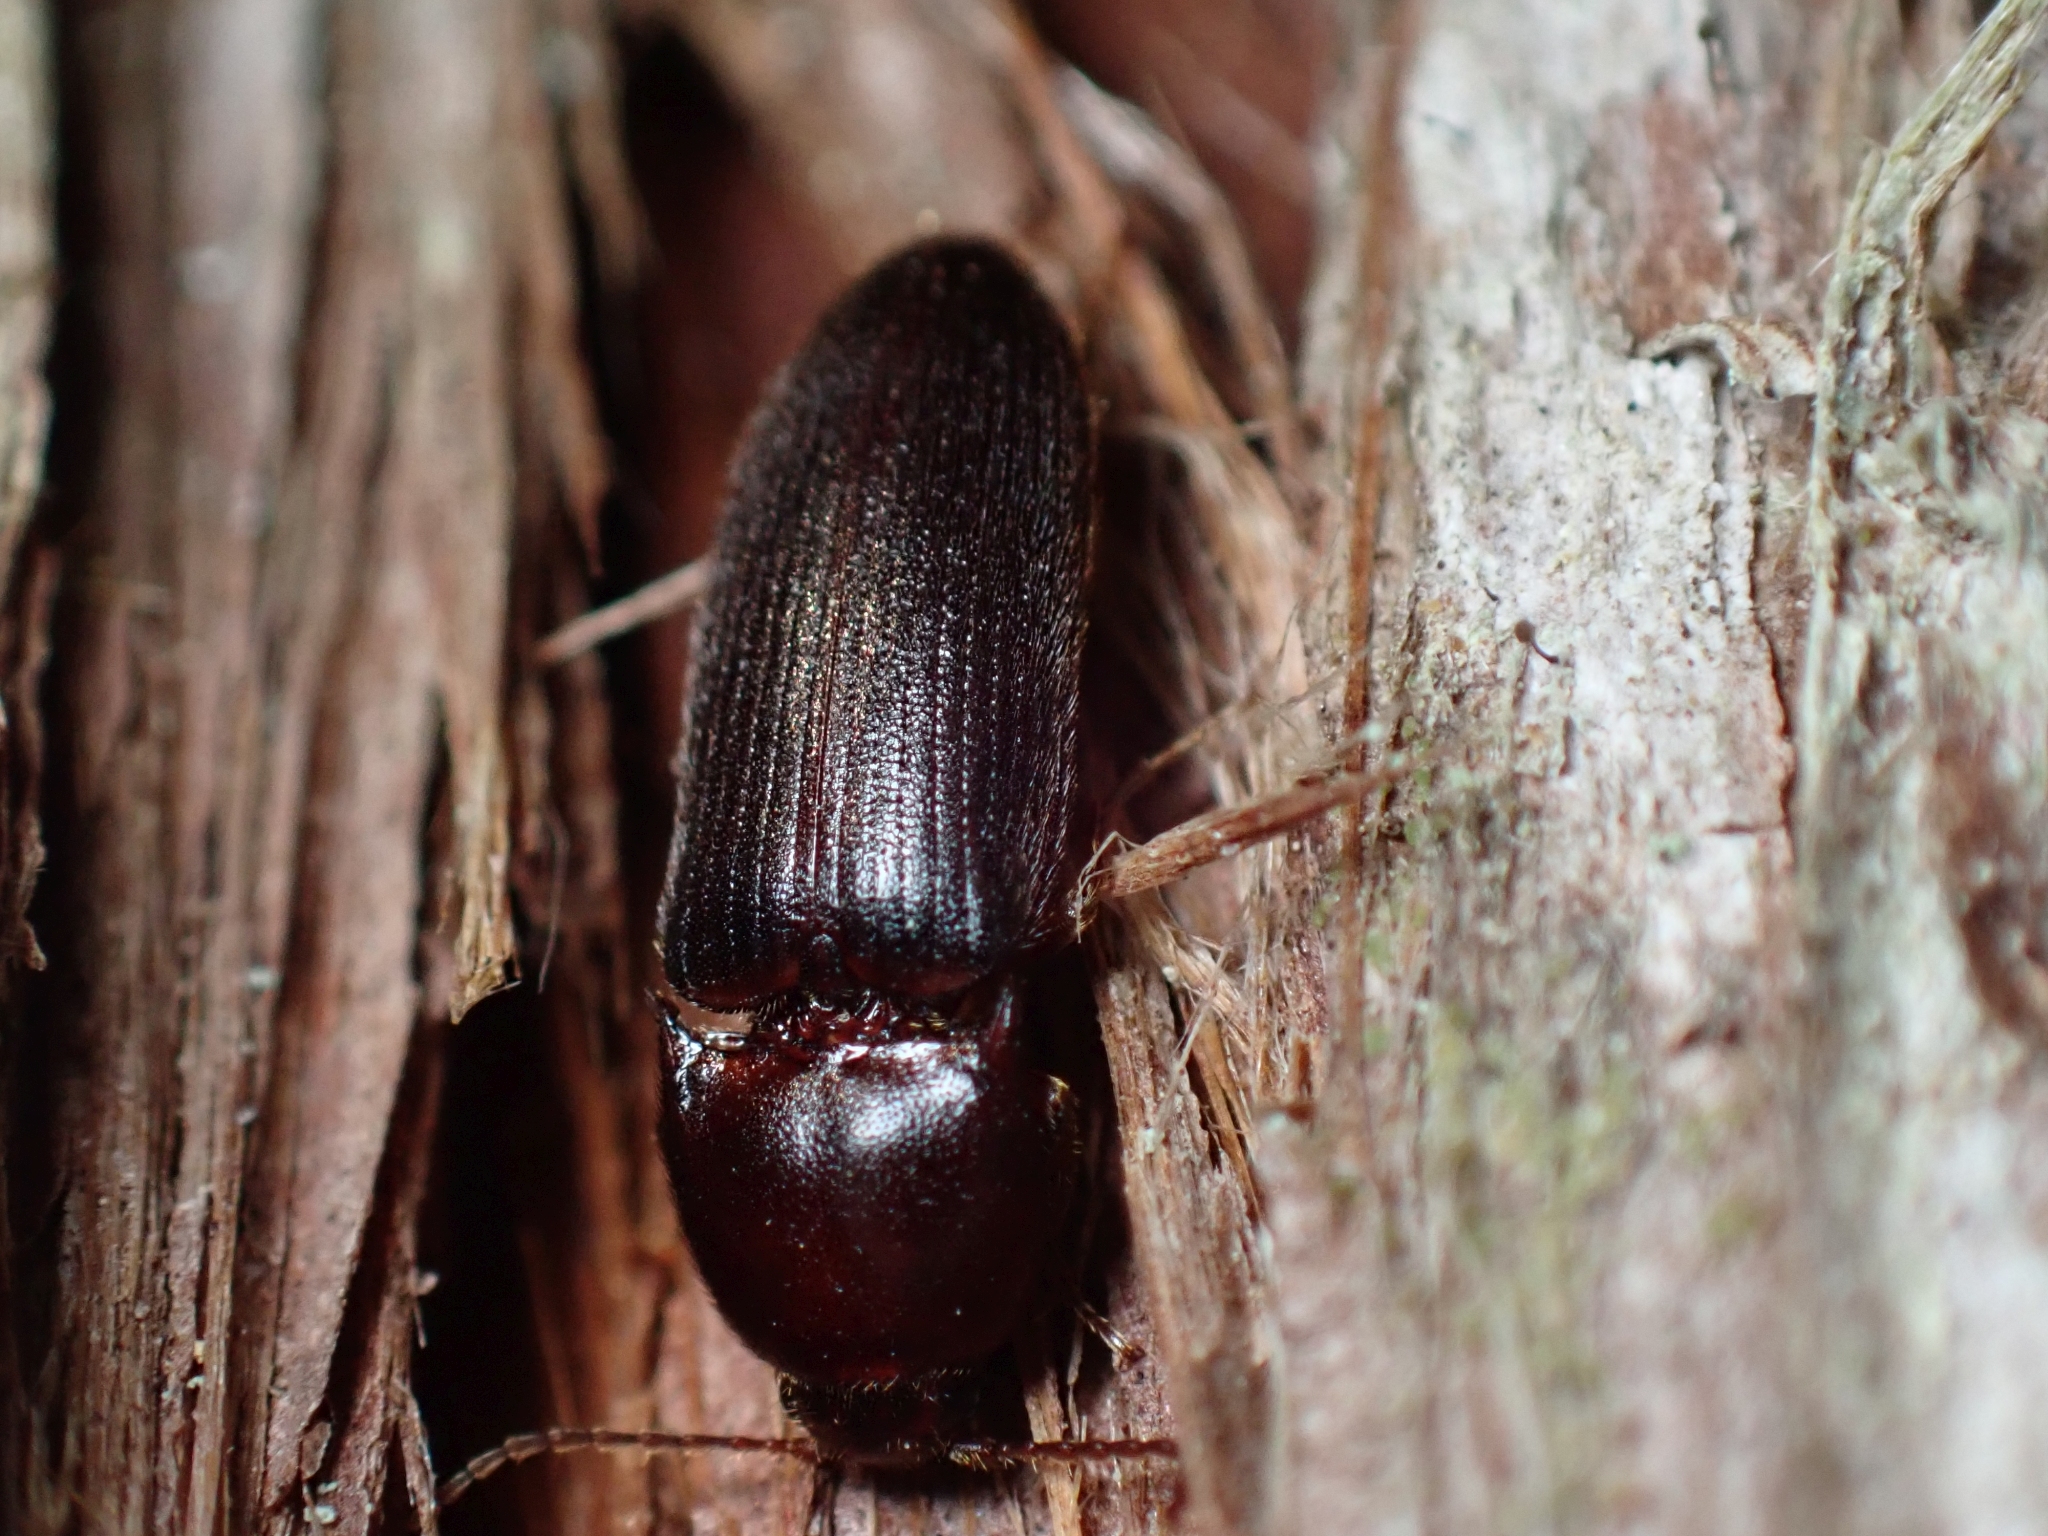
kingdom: Animalia
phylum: Arthropoda
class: Insecta
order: Coleoptera
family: Elateridae
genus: Ampedus
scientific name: Ampedus rhodopus
